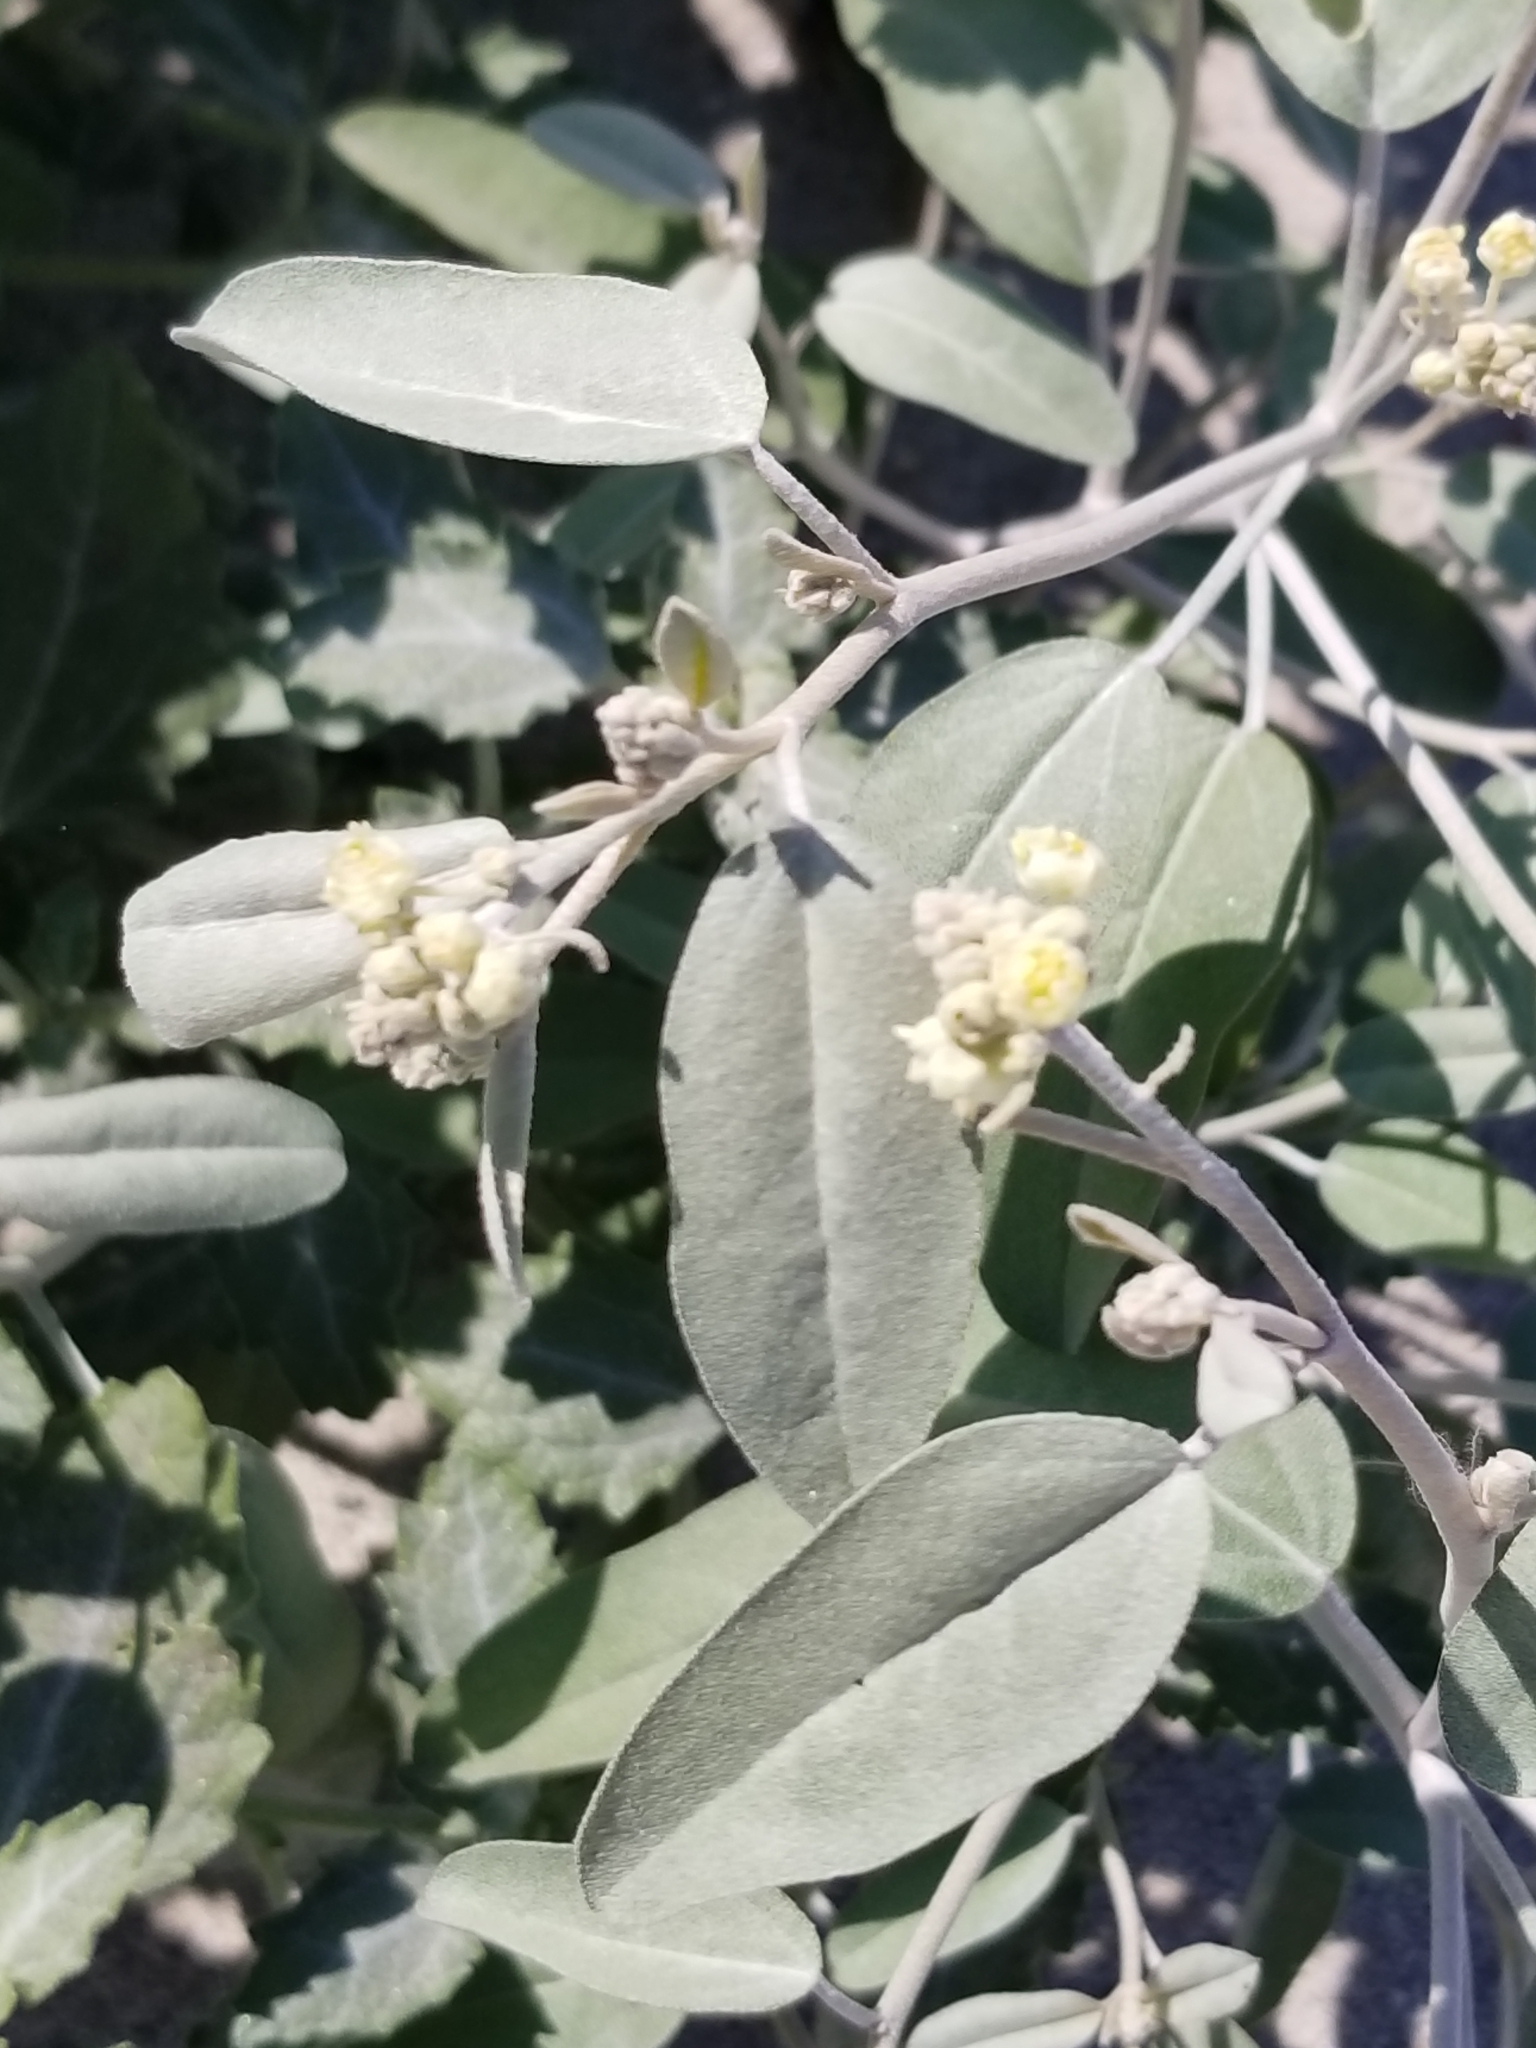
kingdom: Plantae
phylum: Tracheophyta
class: Magnoliopsida
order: Malpighiales
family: Euphorbiaceae
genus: Croton
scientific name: Croton californicus
